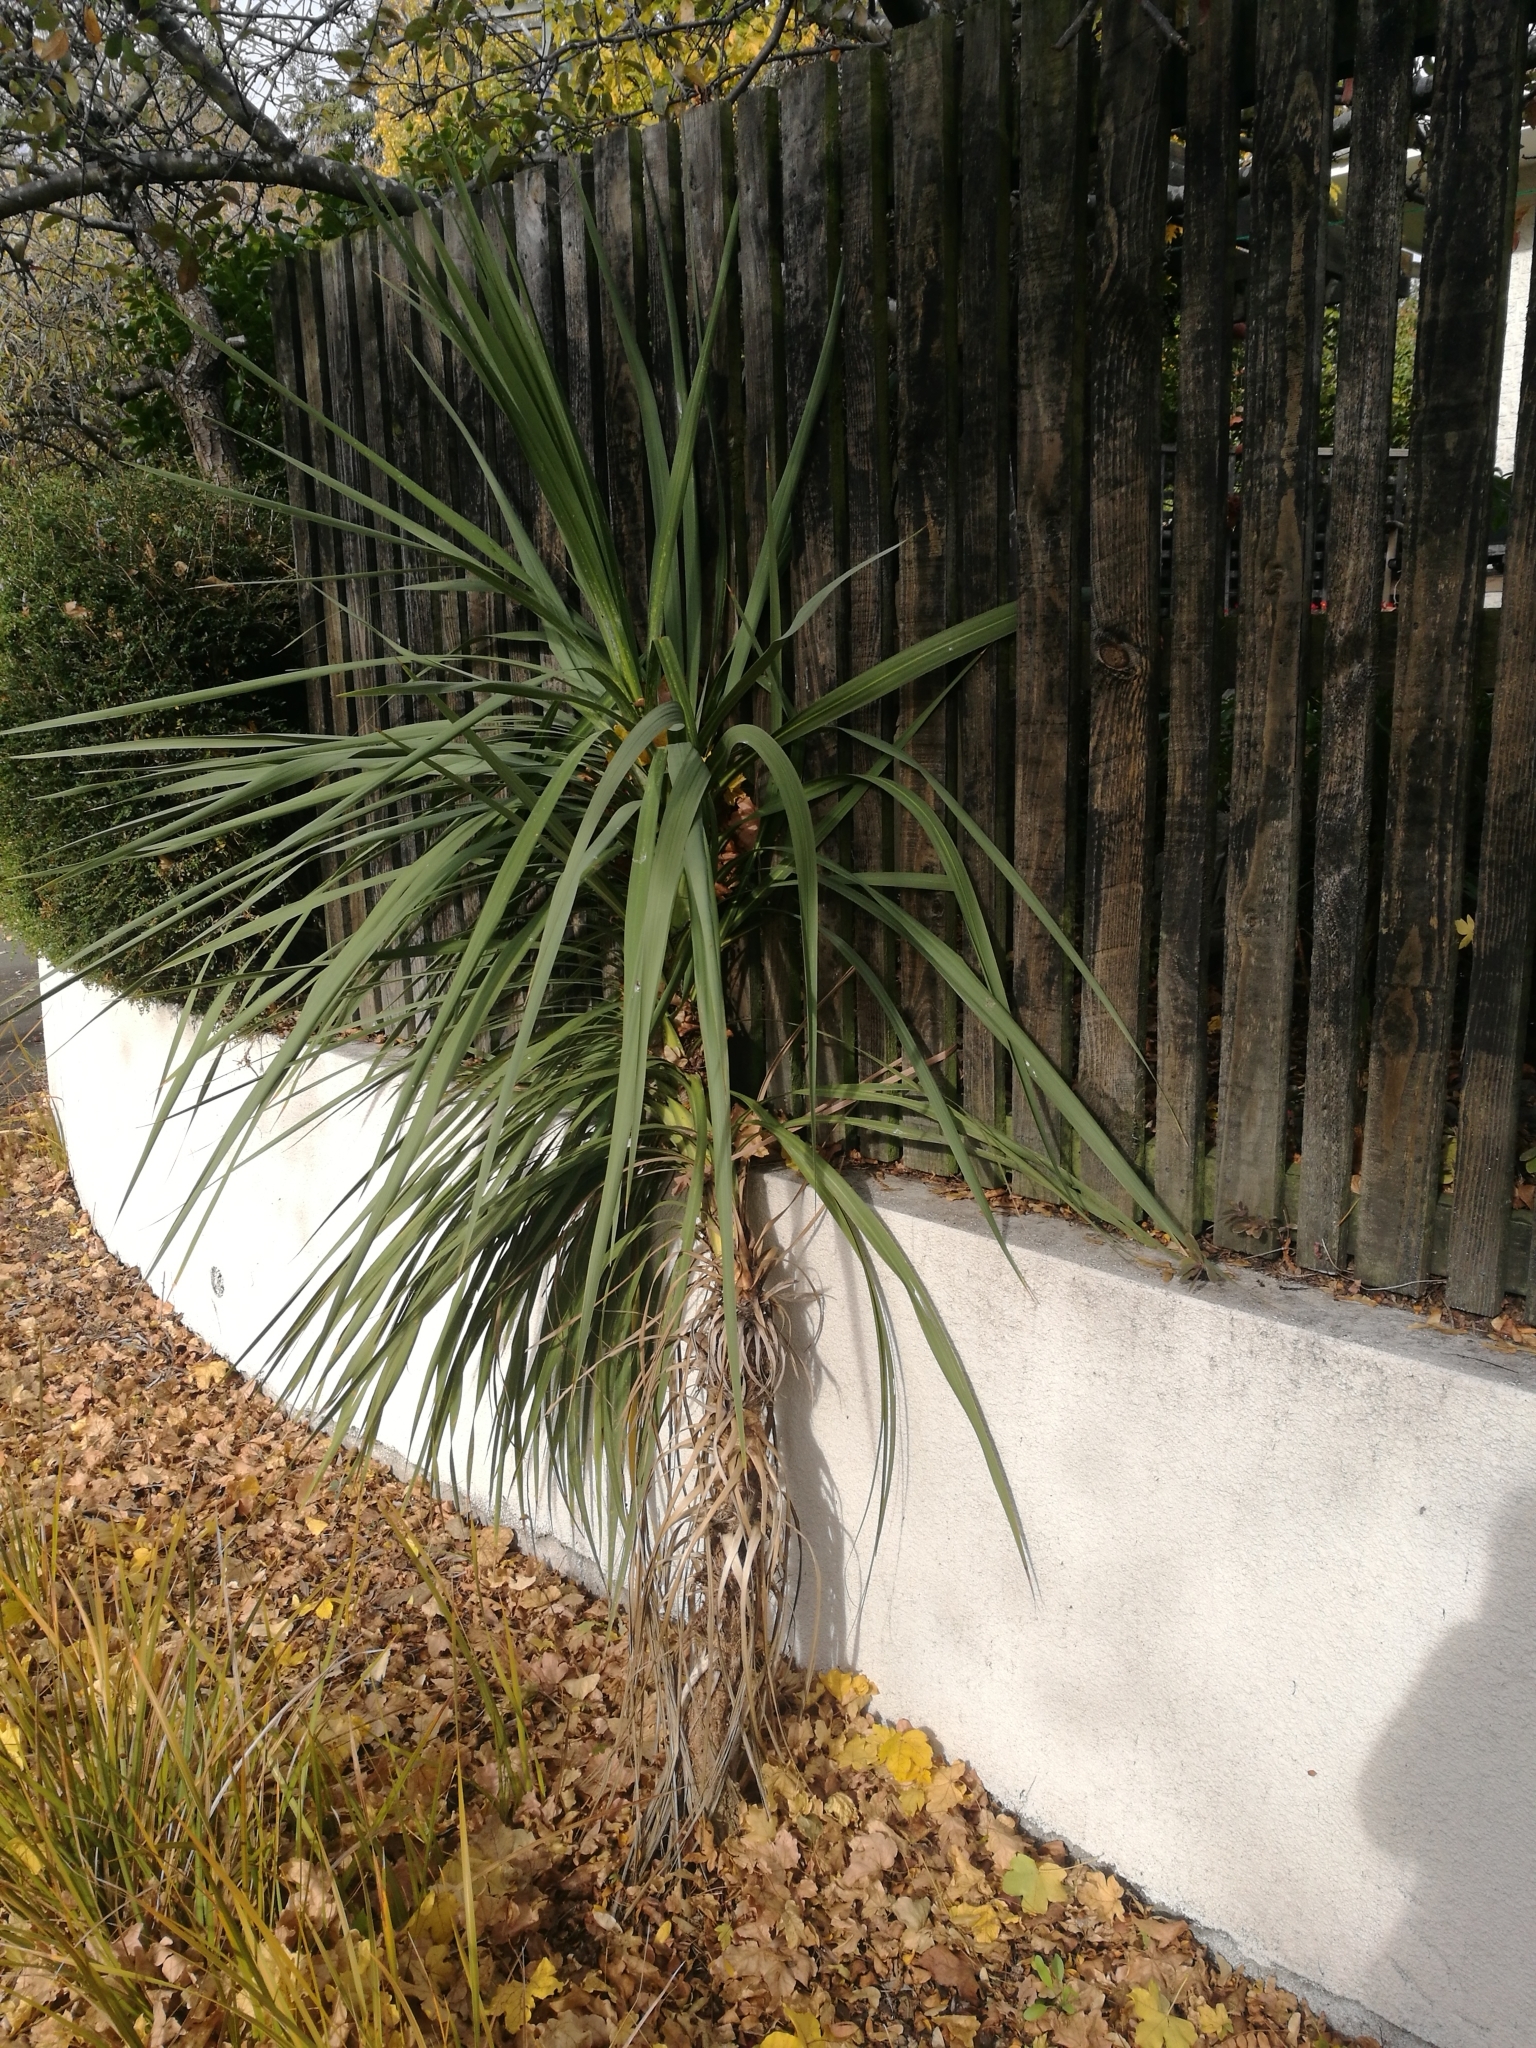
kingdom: Plantae
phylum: Tracheophyta
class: Liliopsida
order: Asparagales
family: Asparagaceae
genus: Cordyline
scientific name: Cordyline australis
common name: Cabbage-palm
